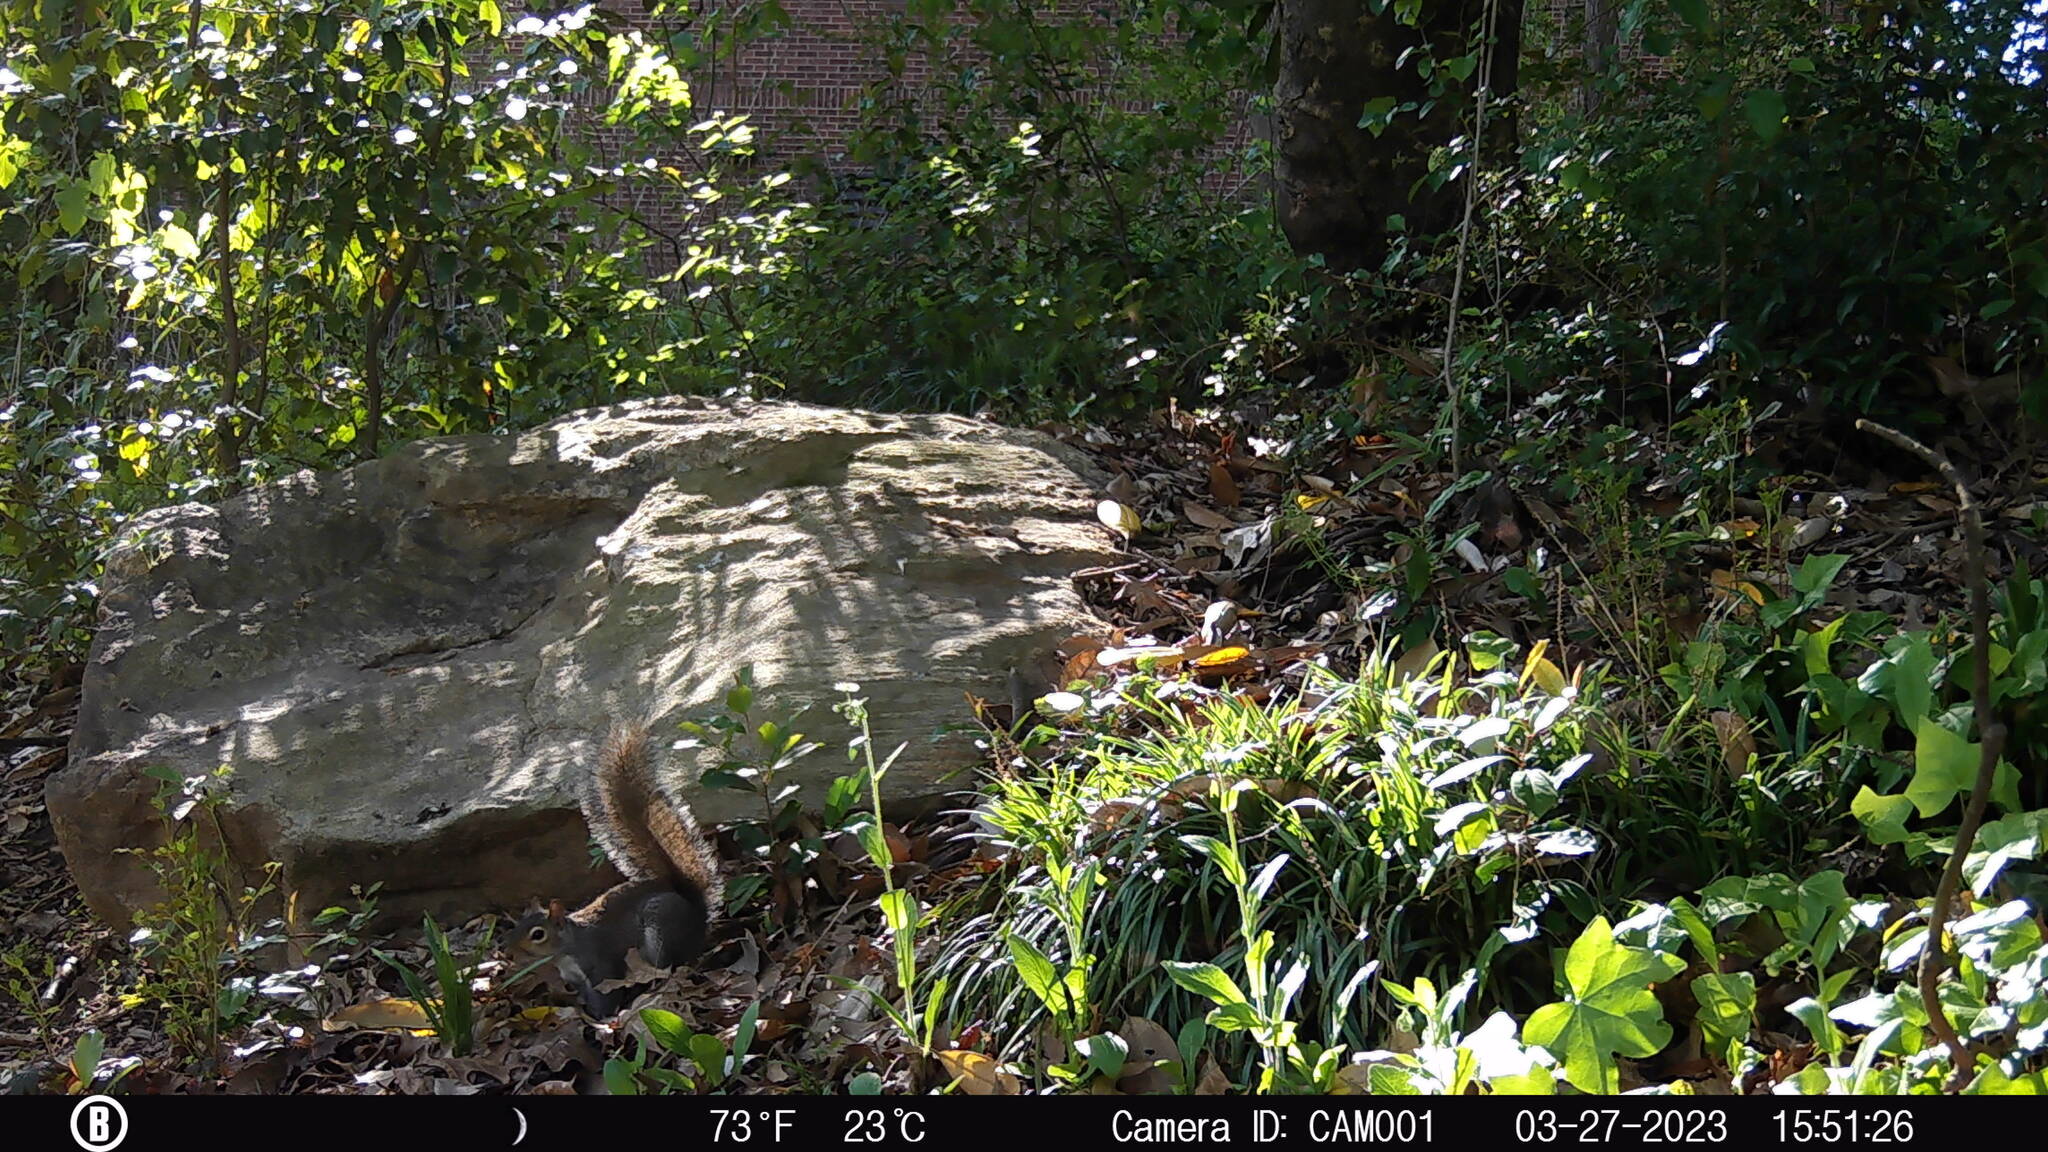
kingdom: Animalia
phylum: Chordata
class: Mammalia
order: Rodentia
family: Sciuridae
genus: Sciurus
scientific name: Sciurus carolinensis
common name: Eastern gray squirrel
